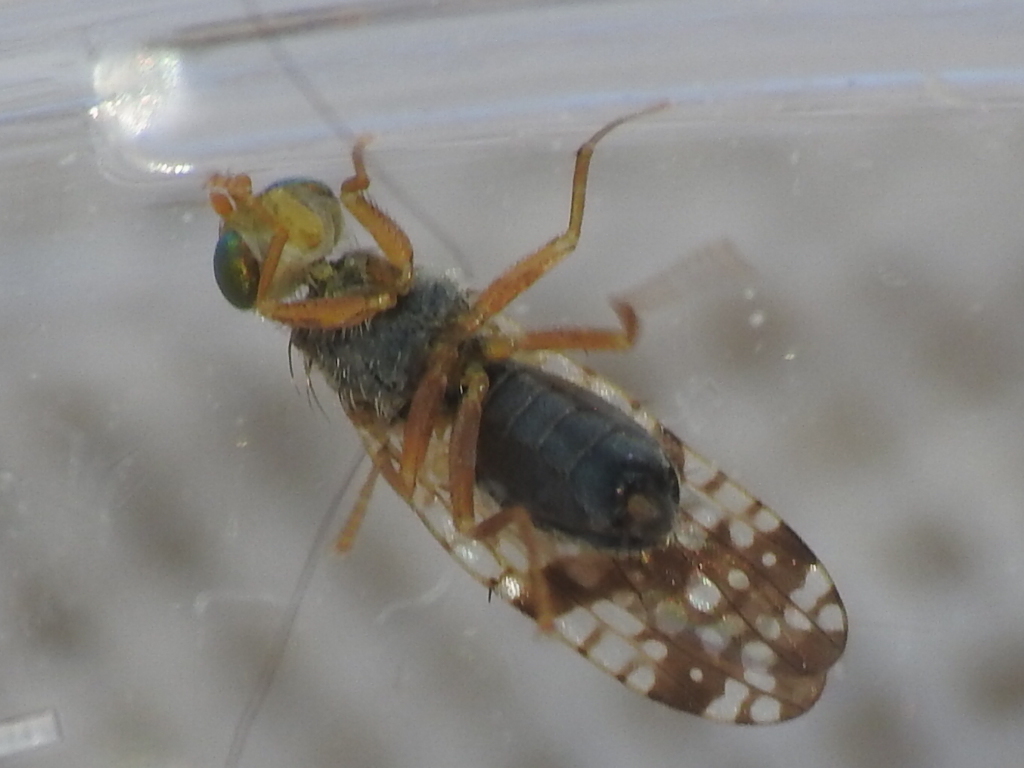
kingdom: Animalia
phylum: Arthropoda
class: Insecta
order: Diptera
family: Tephritidae
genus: Neotephritis
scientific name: Neotephritis finalis
